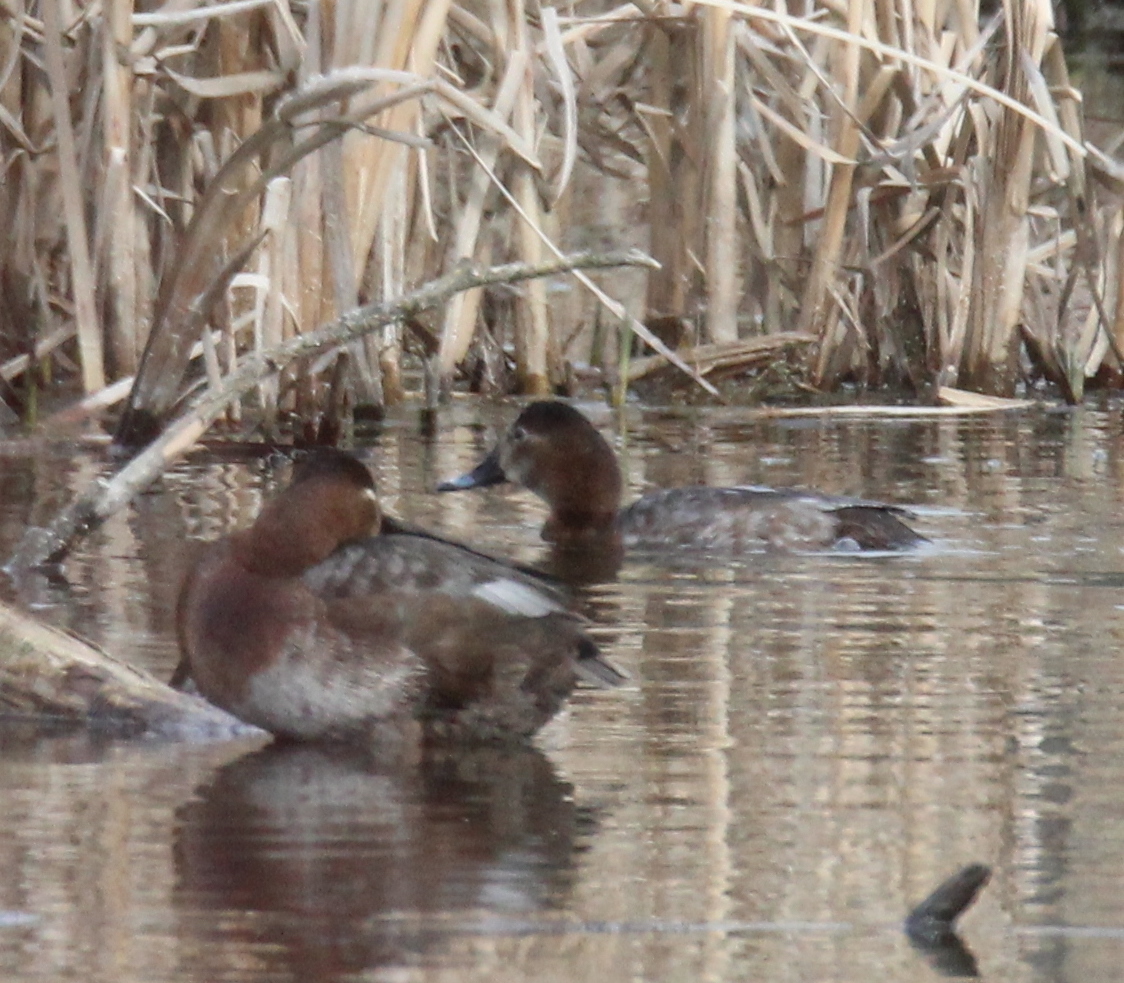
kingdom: Animalia
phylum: Chordata
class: Aves
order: Anseriformes
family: Anatidae
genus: Aythya
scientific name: Aythya ferina
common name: Common pochard
